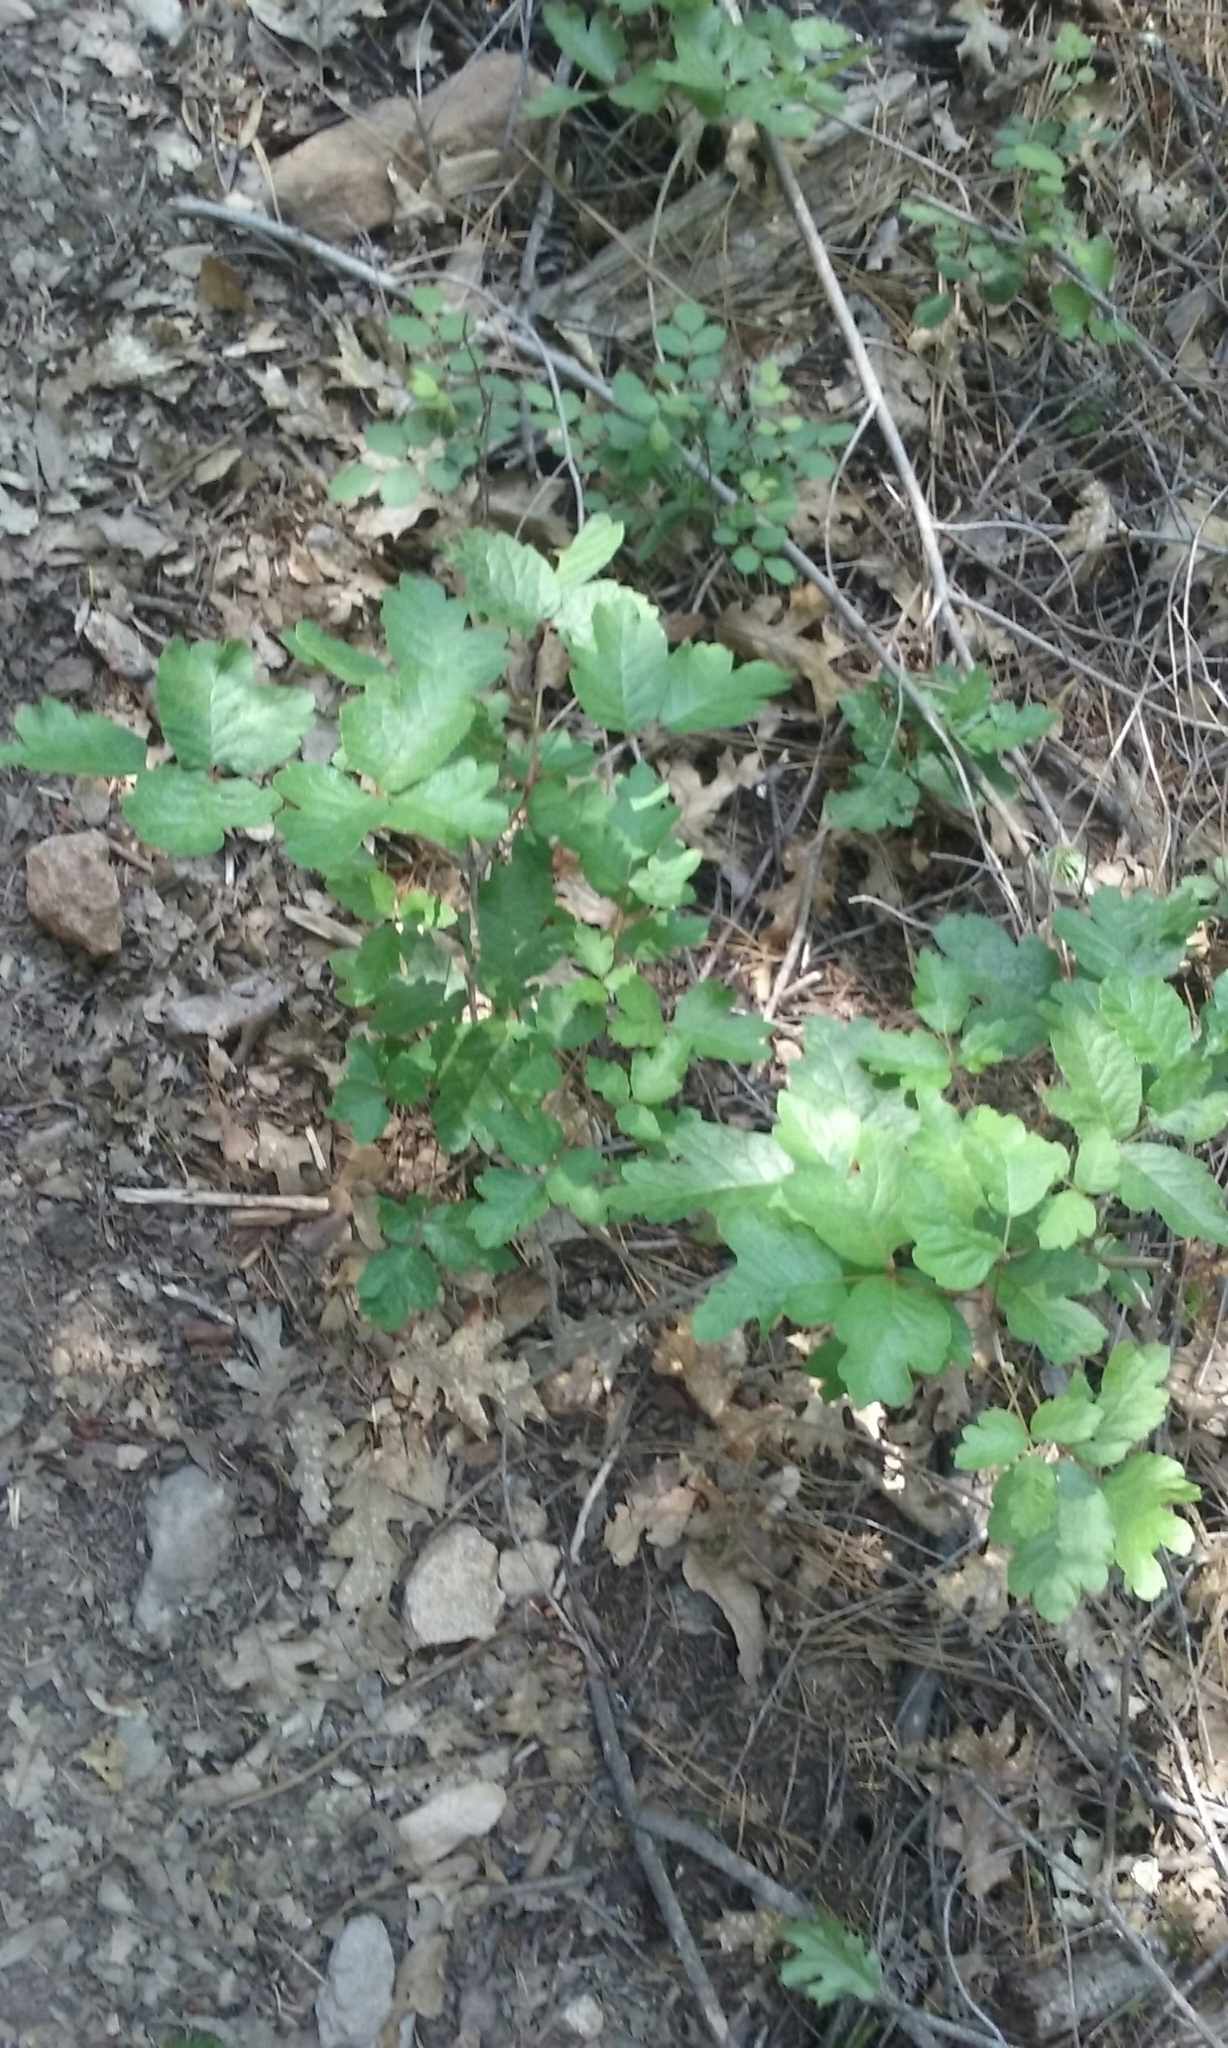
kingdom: Plantae
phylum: Tracheophyta
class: Magnoliopsida
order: Sapindales
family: Anacardiaceae
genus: Toxicodendron
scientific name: Toxicodendron diversilobum
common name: Pacific poison-oak
